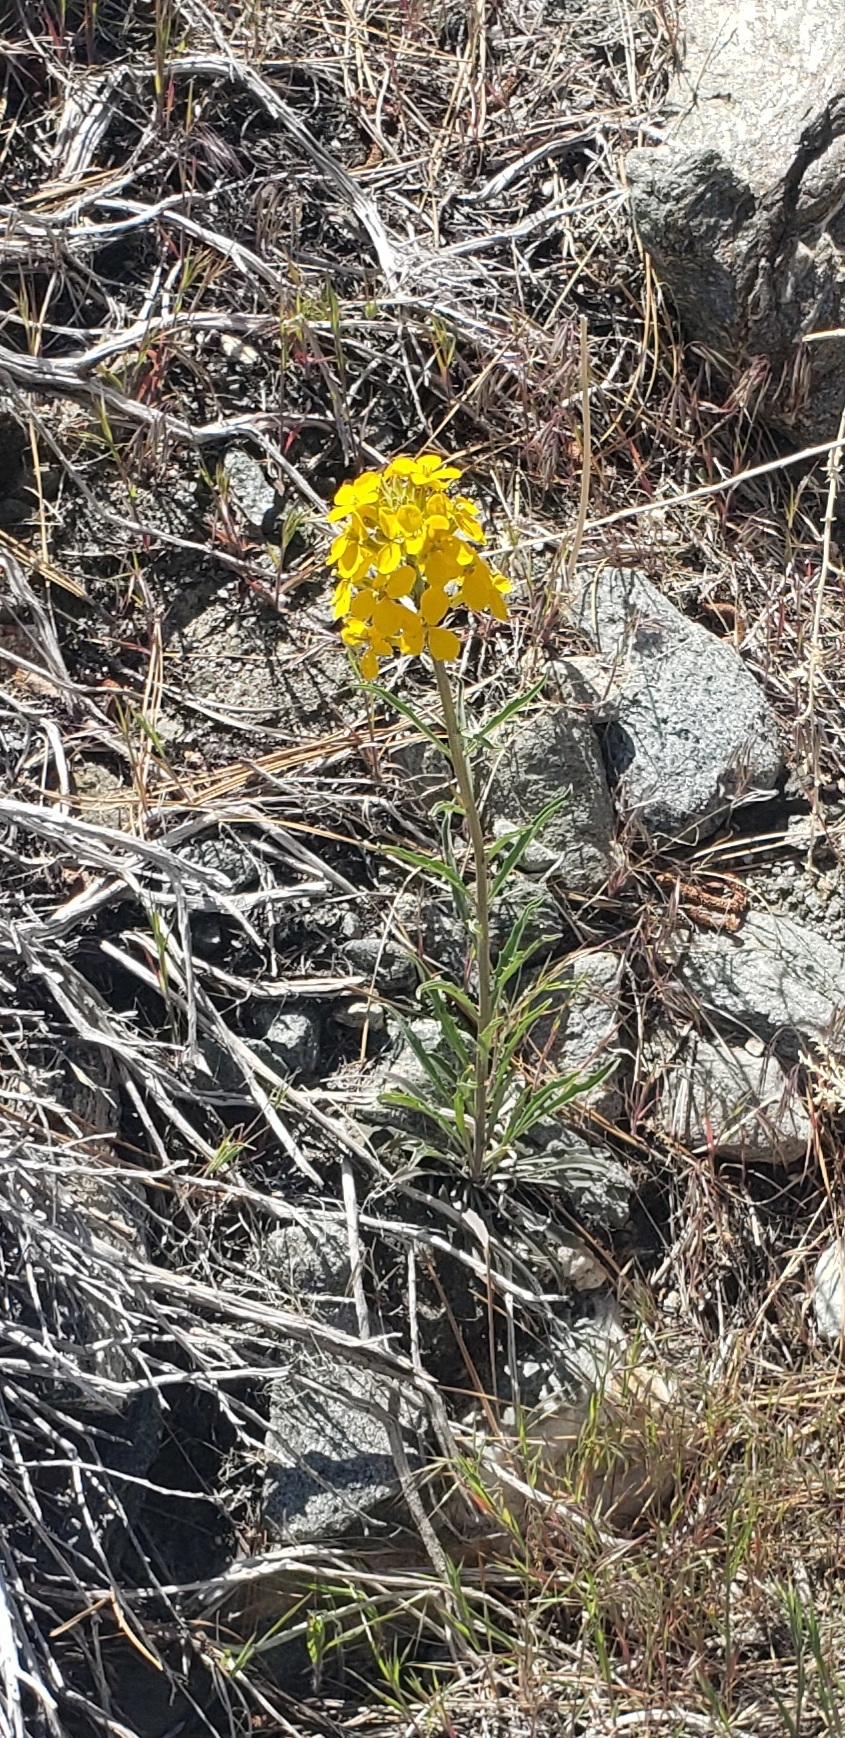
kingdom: Plantae
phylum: Tracheophyta
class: Magnoliopsida
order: Brassicales
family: Brassicaceae
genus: Erysimum
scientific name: Erysimum capitatum
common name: Western wallflower
